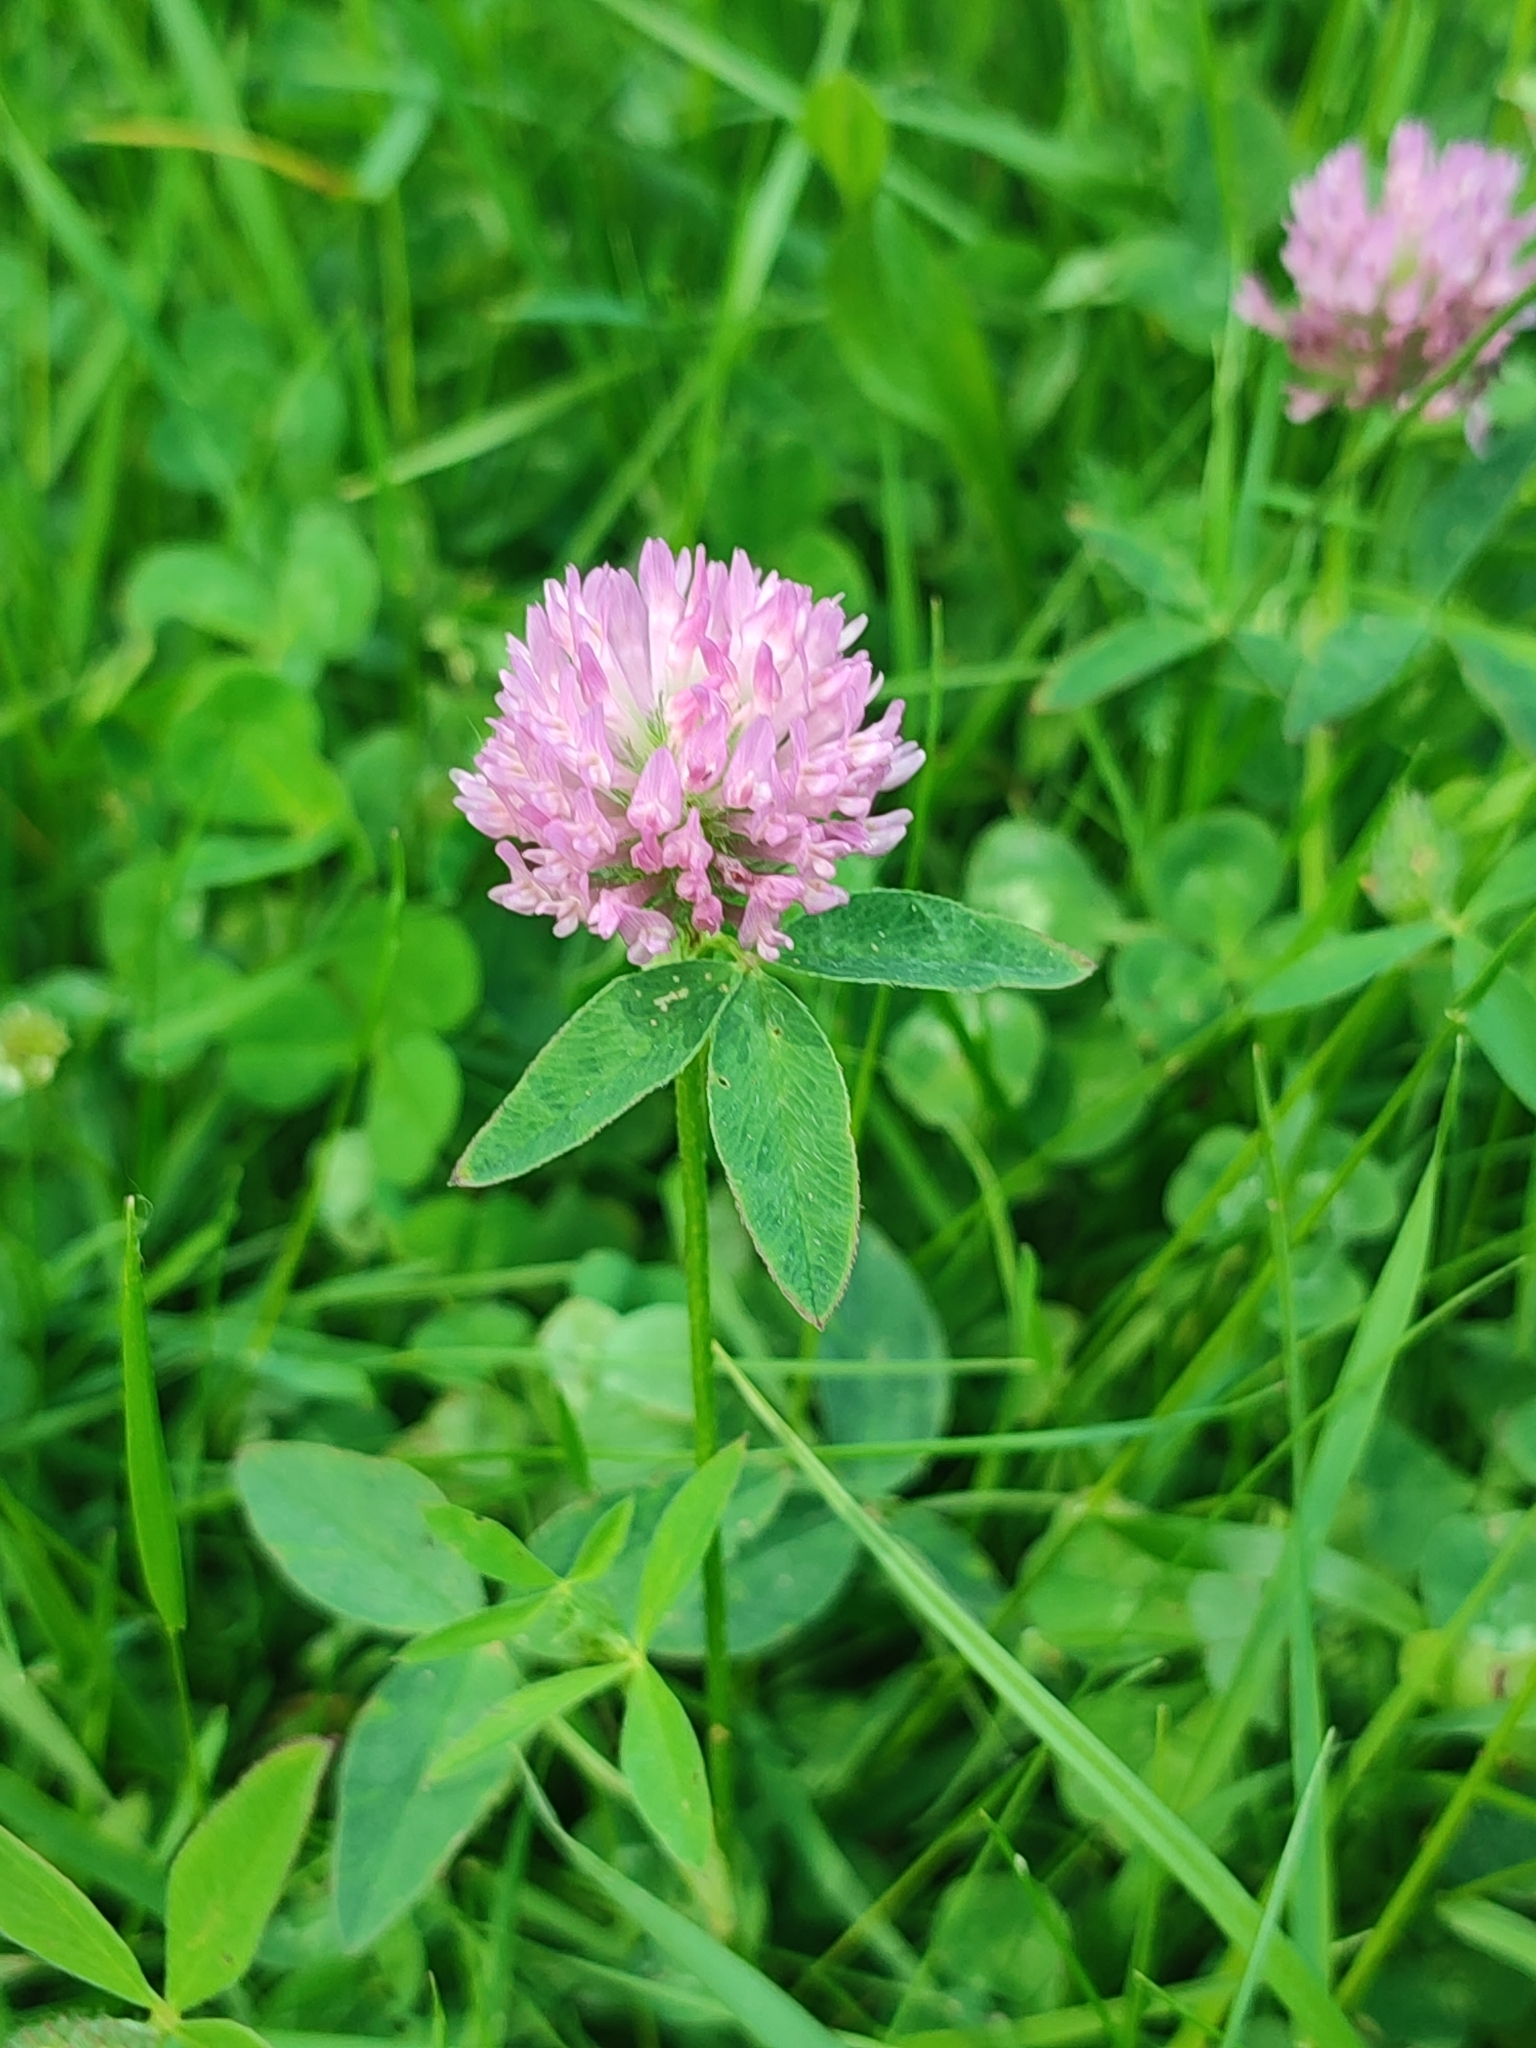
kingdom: Plantae
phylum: Tracheophyta
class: Magnoliopsida
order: Fabales
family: Fabaceae
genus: Trifolium
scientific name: Trifolium pratense
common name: Red clover
